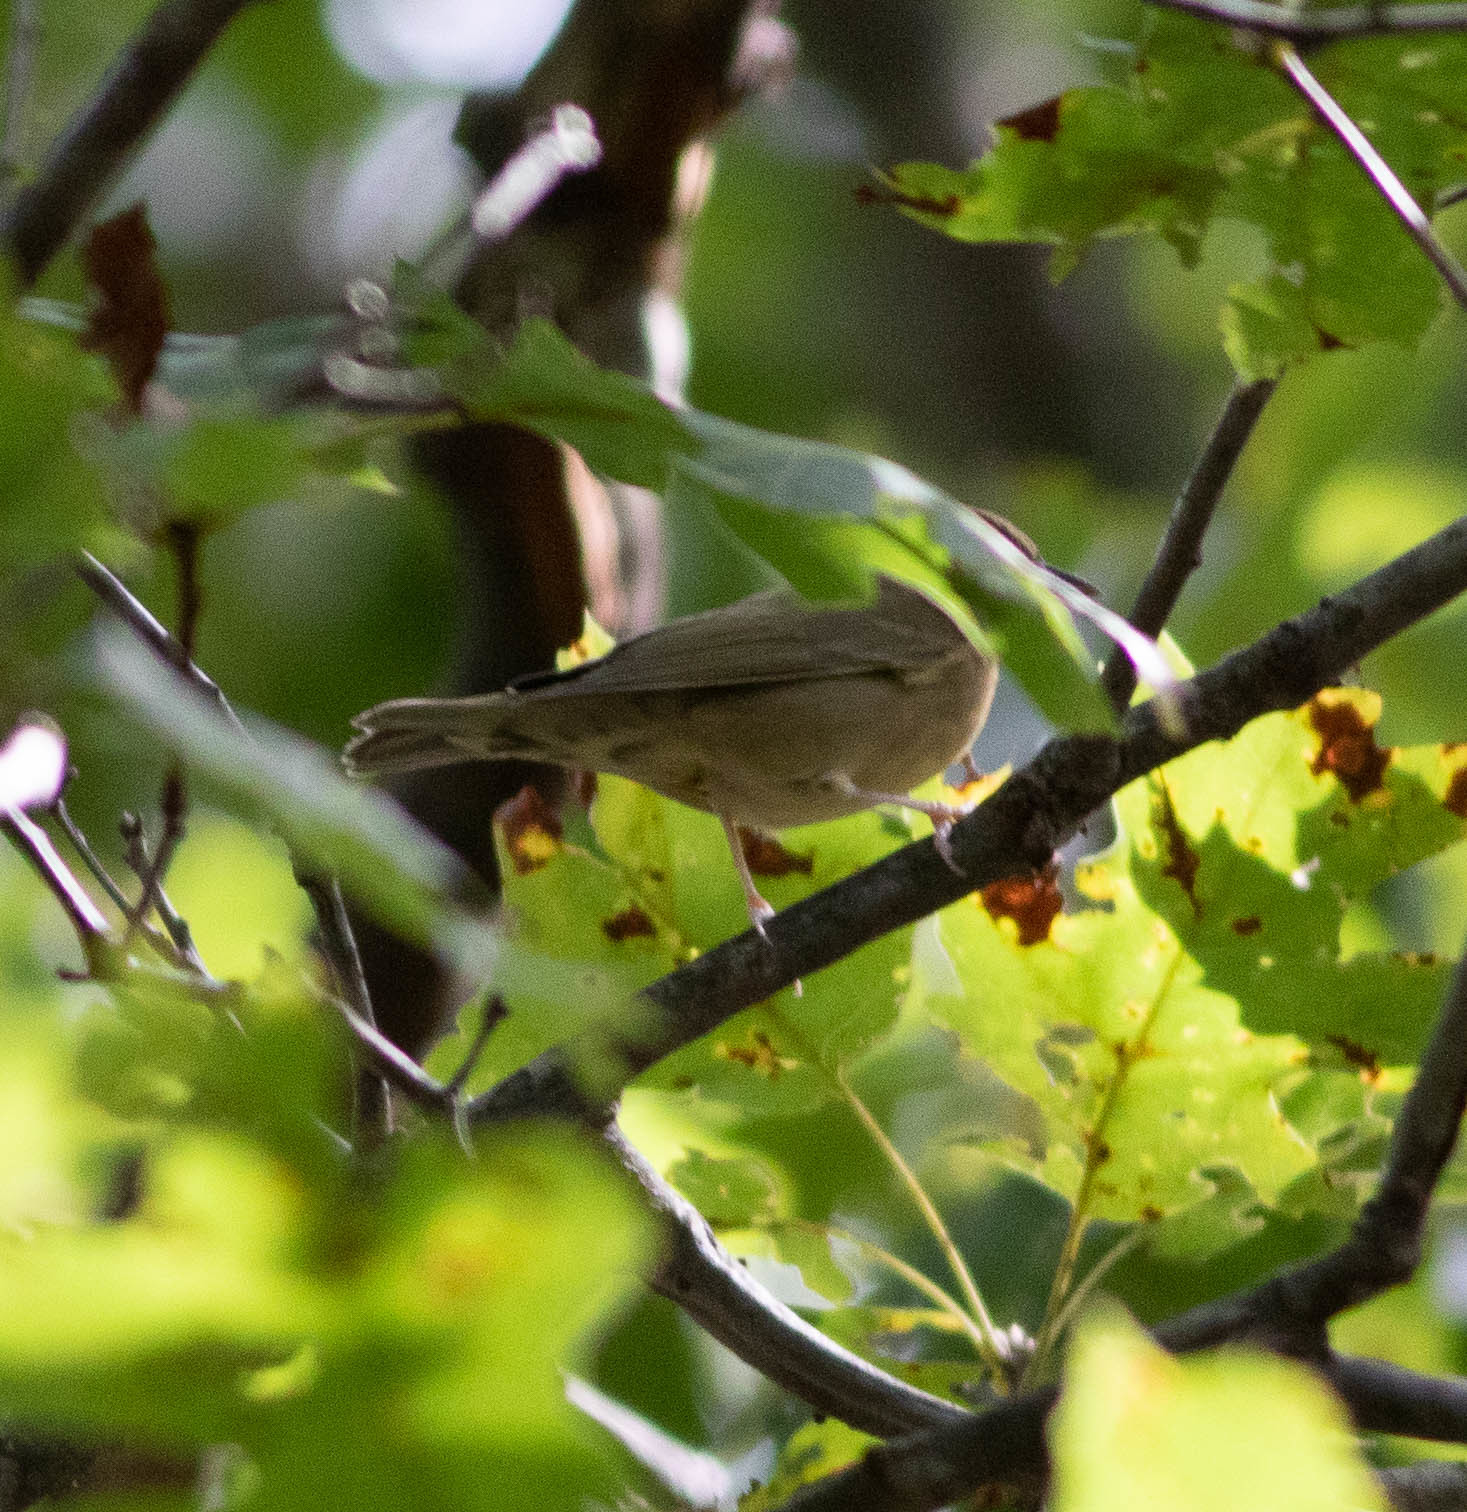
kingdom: Animalia
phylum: Chordata
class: Aves
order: Passeriformes
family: Parulidae
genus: Helmitheros
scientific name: Helmitheros vermivorum
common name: Worm-eating warbler
